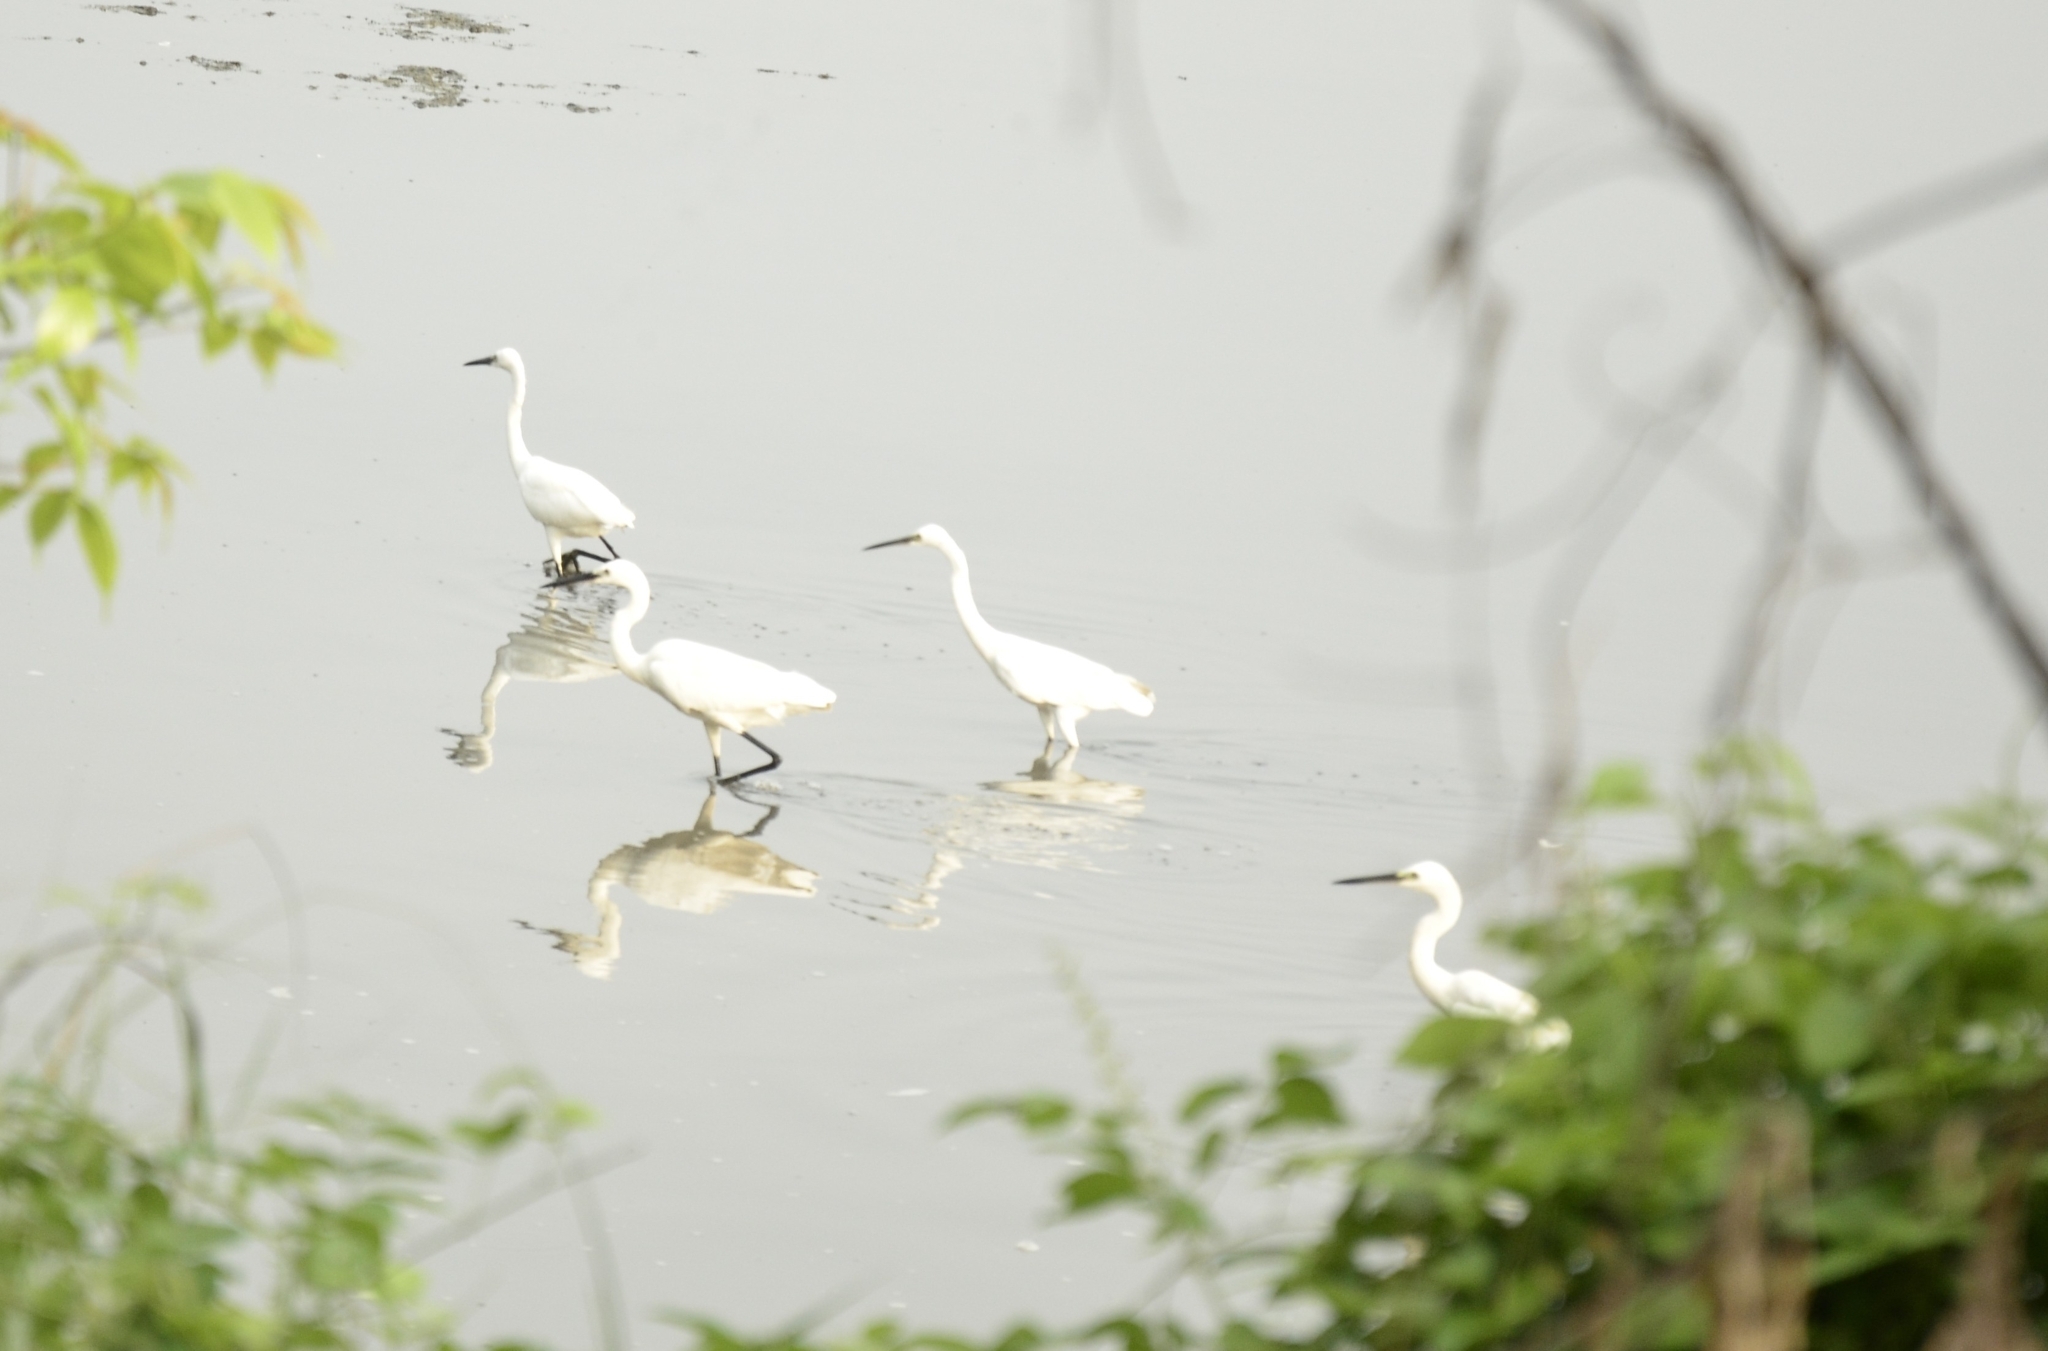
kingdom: Animalia
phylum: Chordata
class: Aves
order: Pelecaniformes
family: Ardeidae
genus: Egretta
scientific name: Egretta garzetta
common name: Little egret
